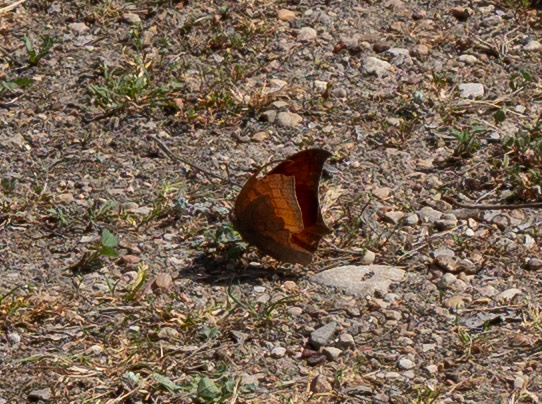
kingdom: Animalia
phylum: Arthropoda
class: Insecta
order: Lepidoptera
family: Nymphalidae
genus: Anaea
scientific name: Anaea andria
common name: Goatweed leafwing
